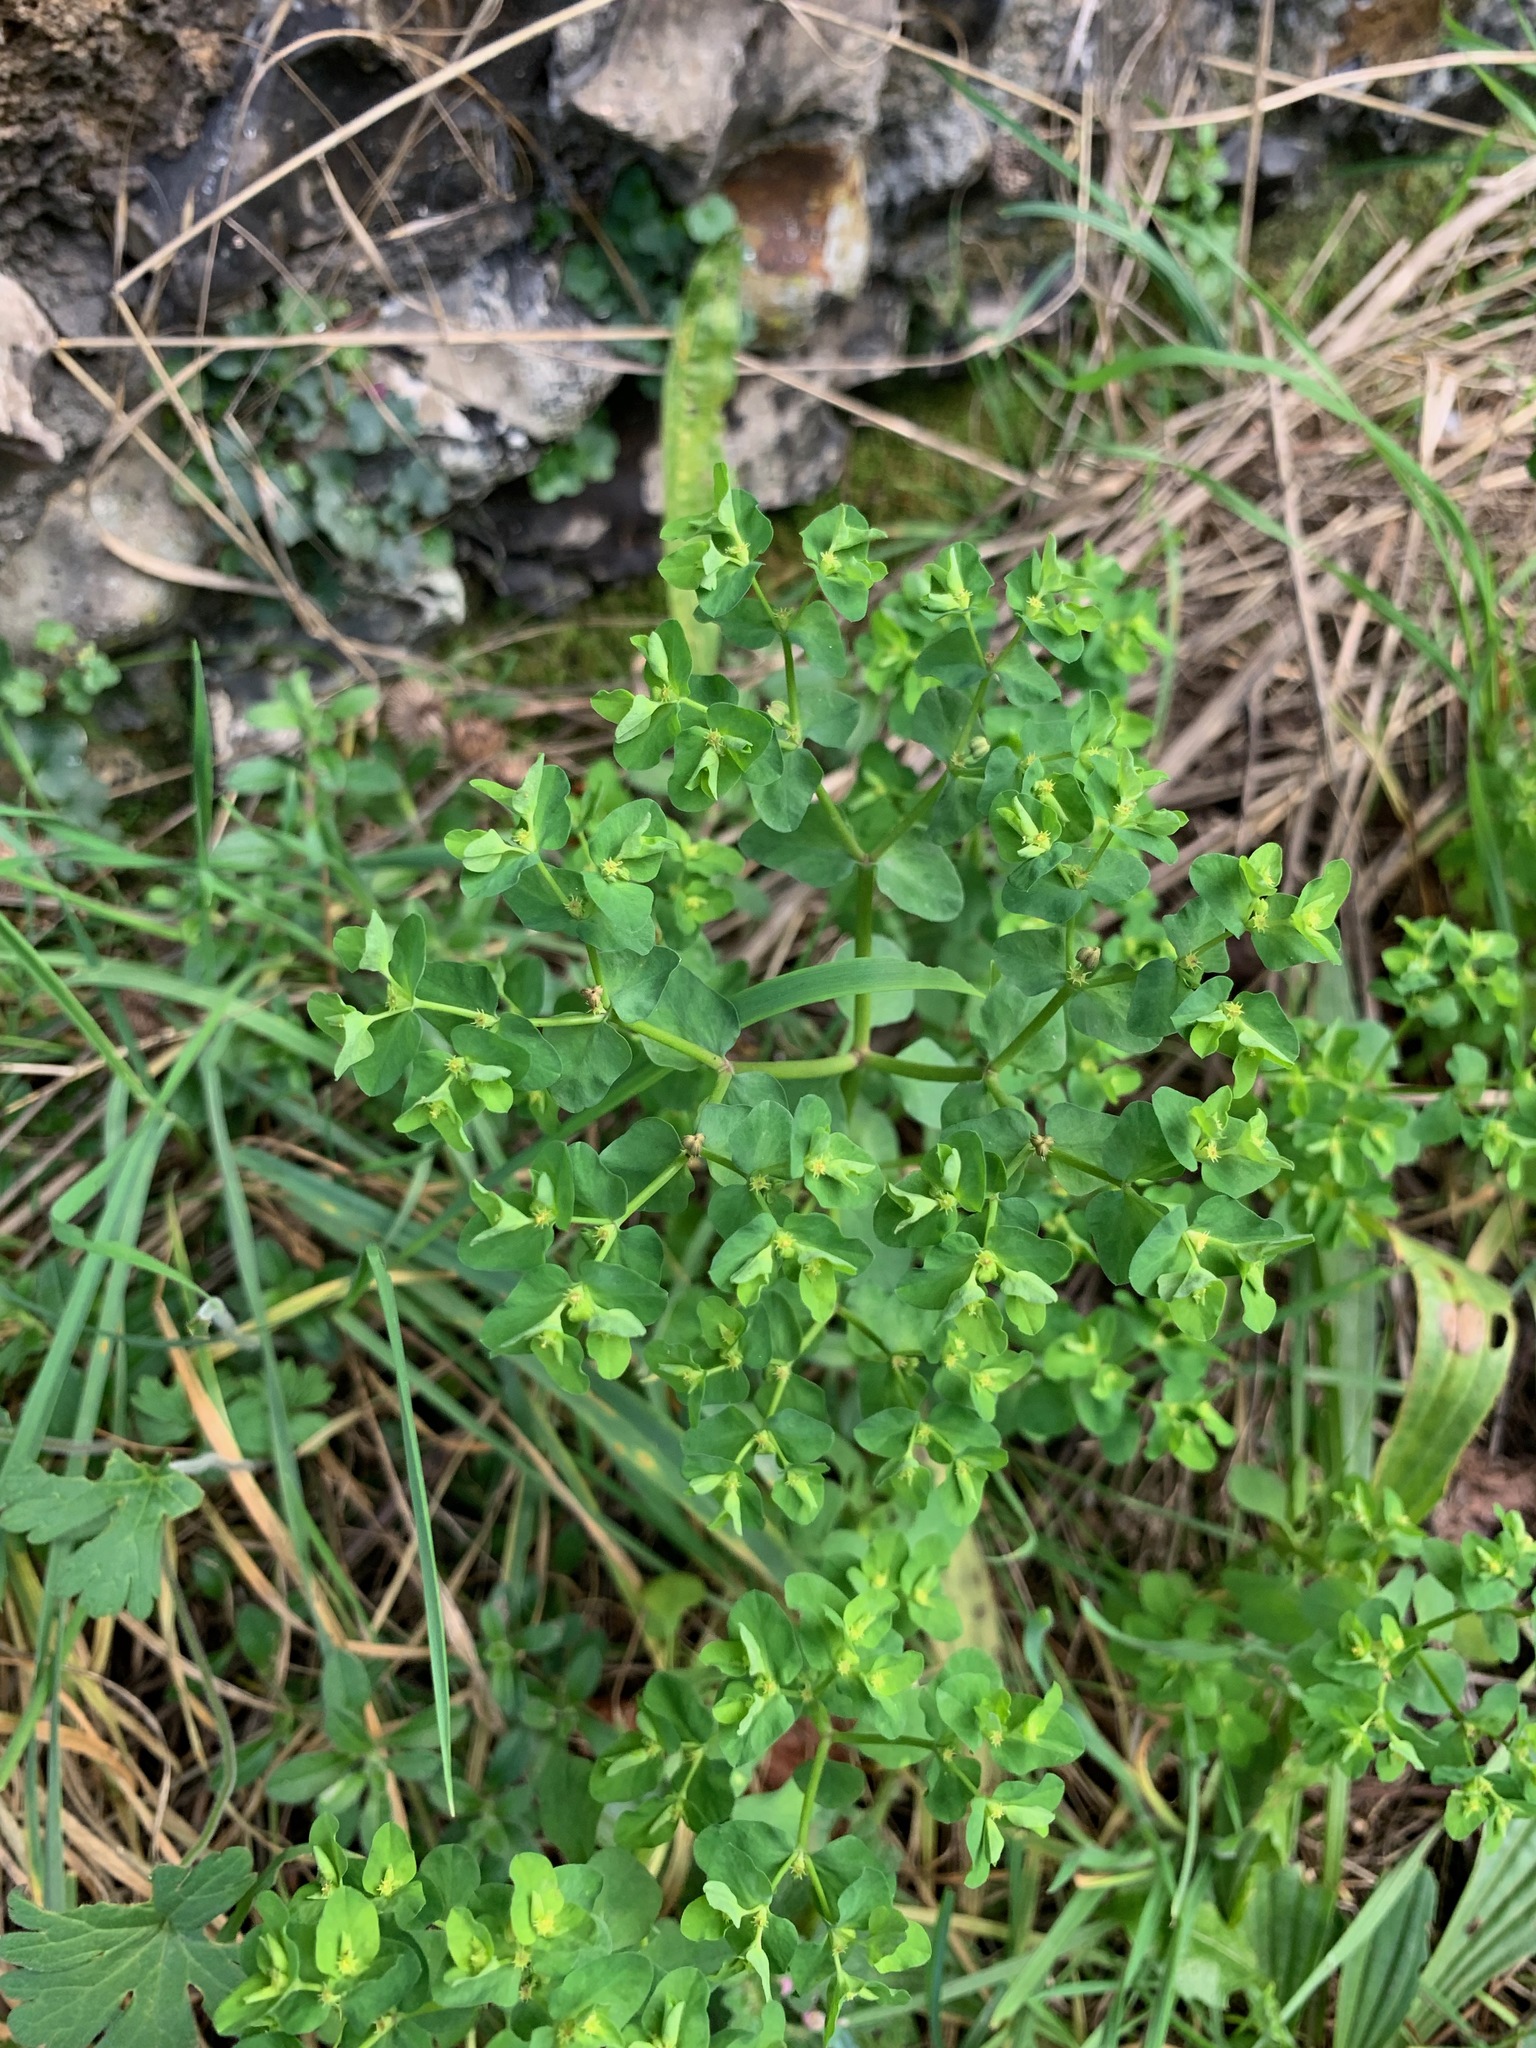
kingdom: Plantae
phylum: Tracheophyta
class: Magnoliopsida
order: Malpighiales
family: Euphorbiaceae
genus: Euphorbia
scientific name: Euphorbia peplus
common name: Petty spurge
